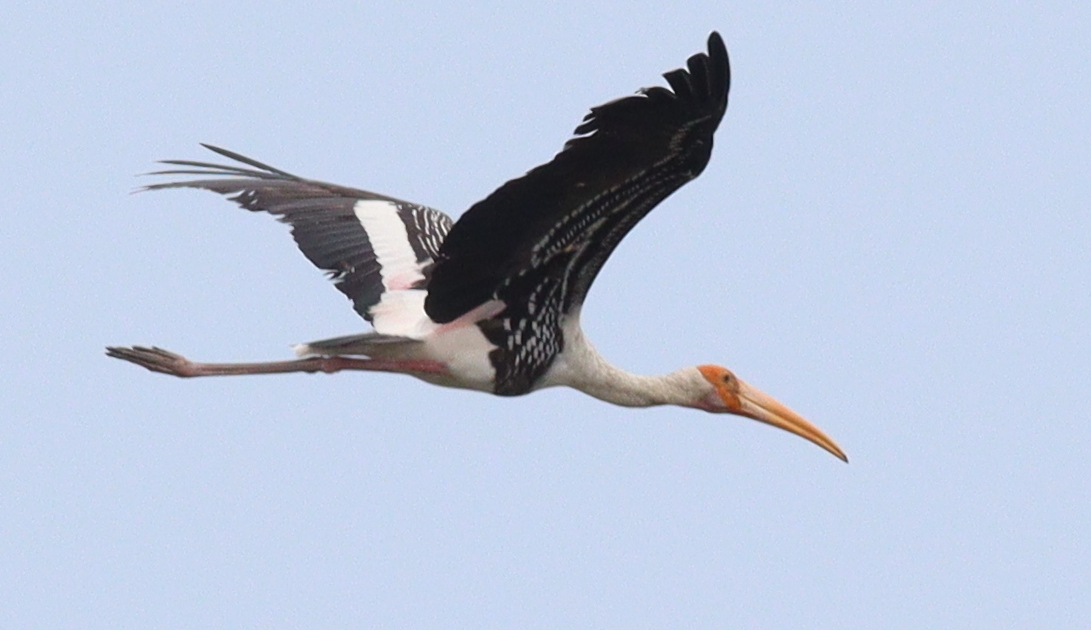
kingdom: Animalia
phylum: Chordata
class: Aves
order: Ciconiiformes
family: Ciconiidae
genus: Mycteria
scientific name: Mycteria leucocephala
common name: Painted stork
